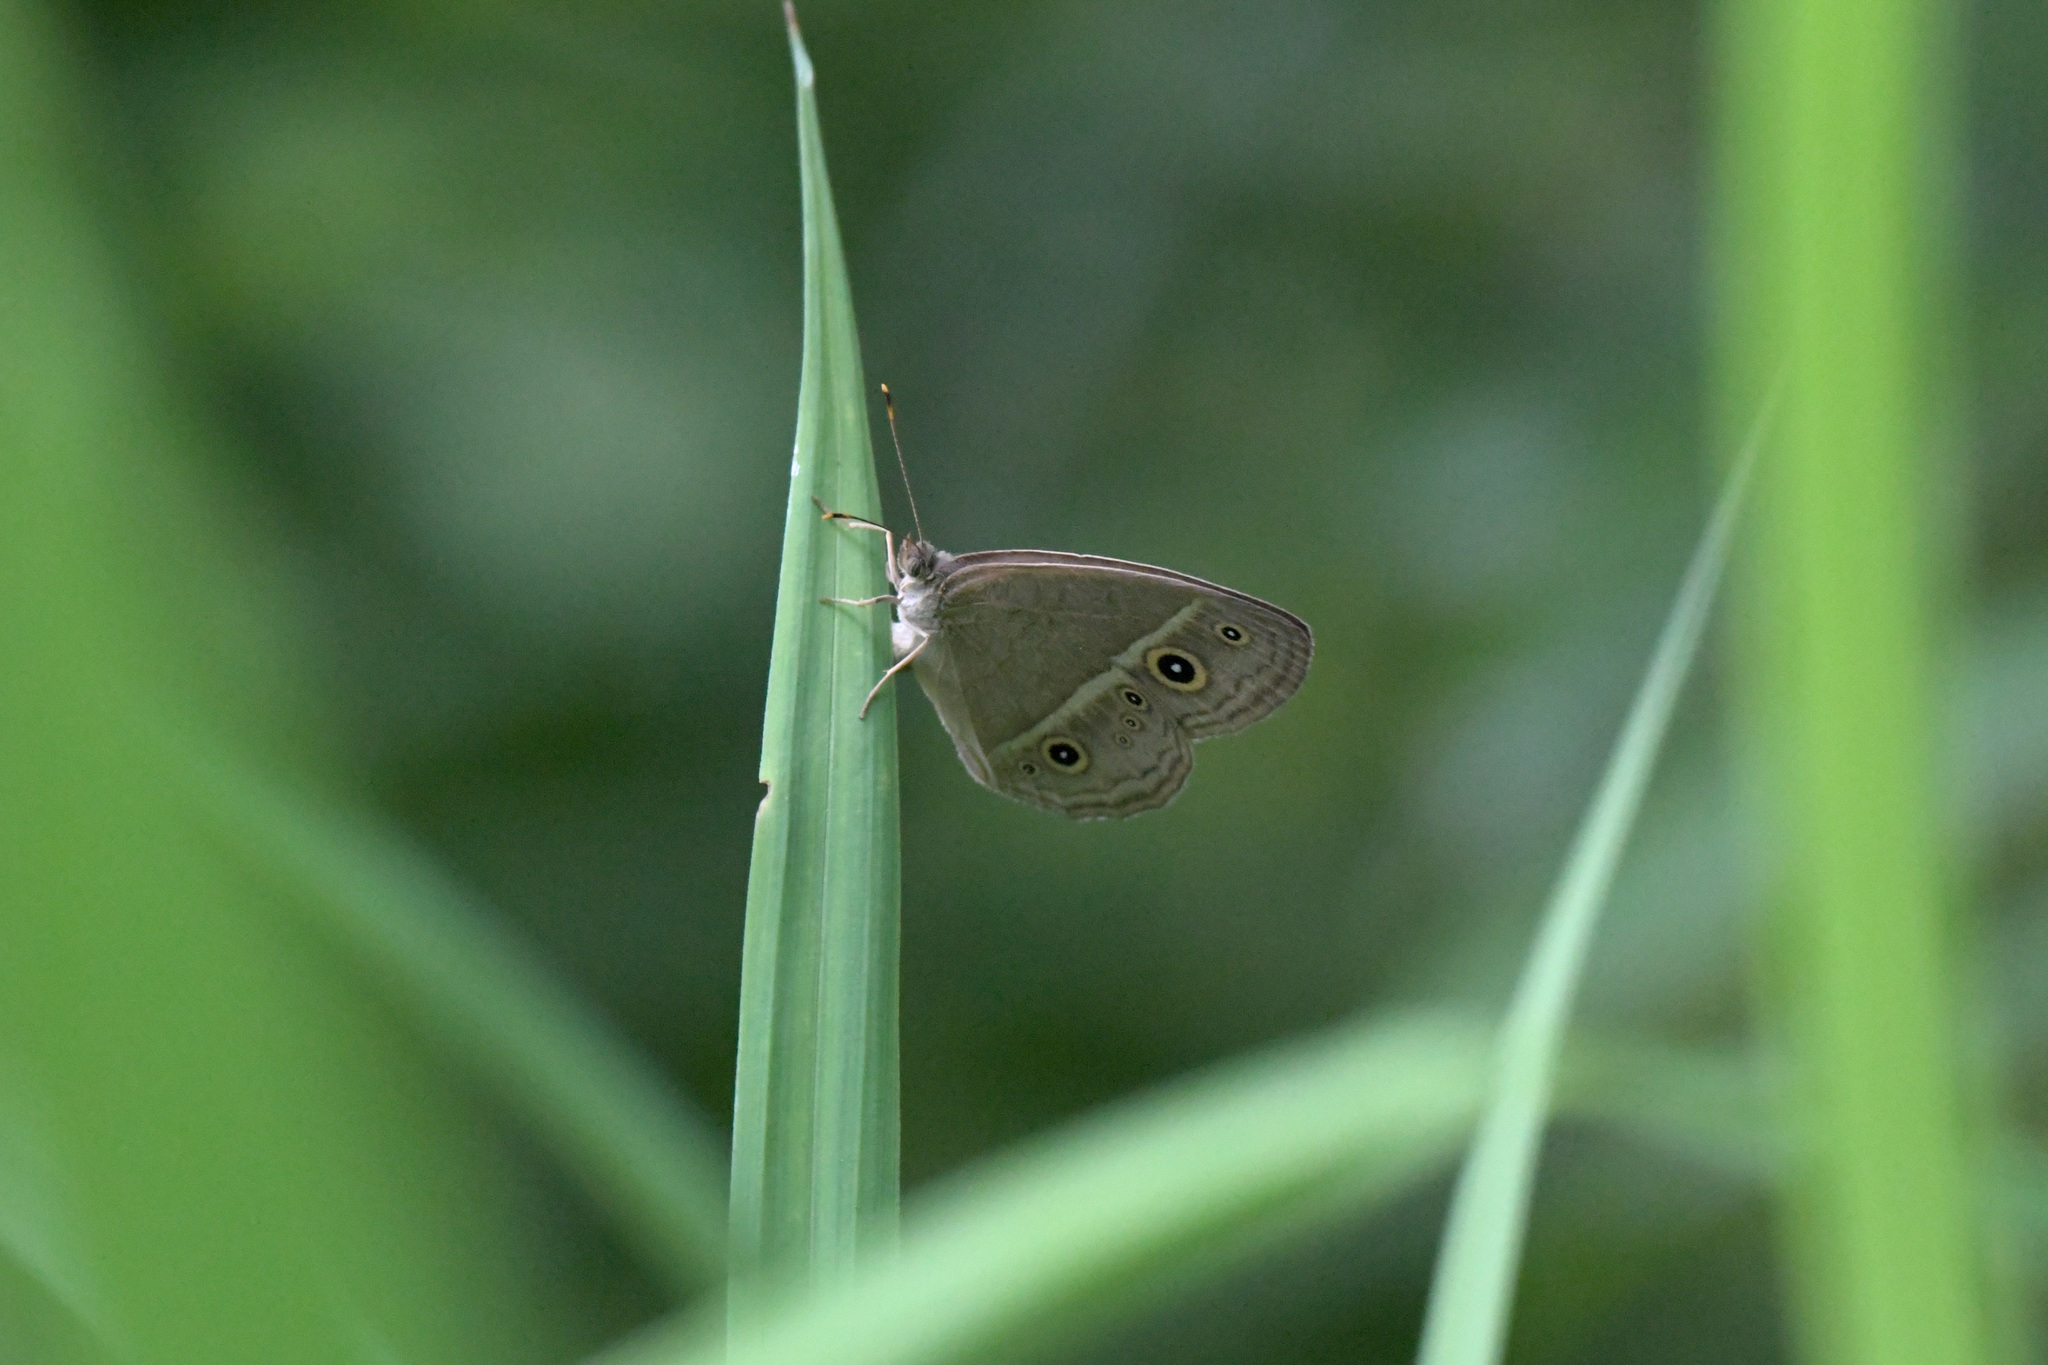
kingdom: Animalia
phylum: Arthropoda
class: Insecta
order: Lepidoptera
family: Nymphalidae
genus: Mycalesis
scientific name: Mycalesis gotama
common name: Chinese bushbrown
